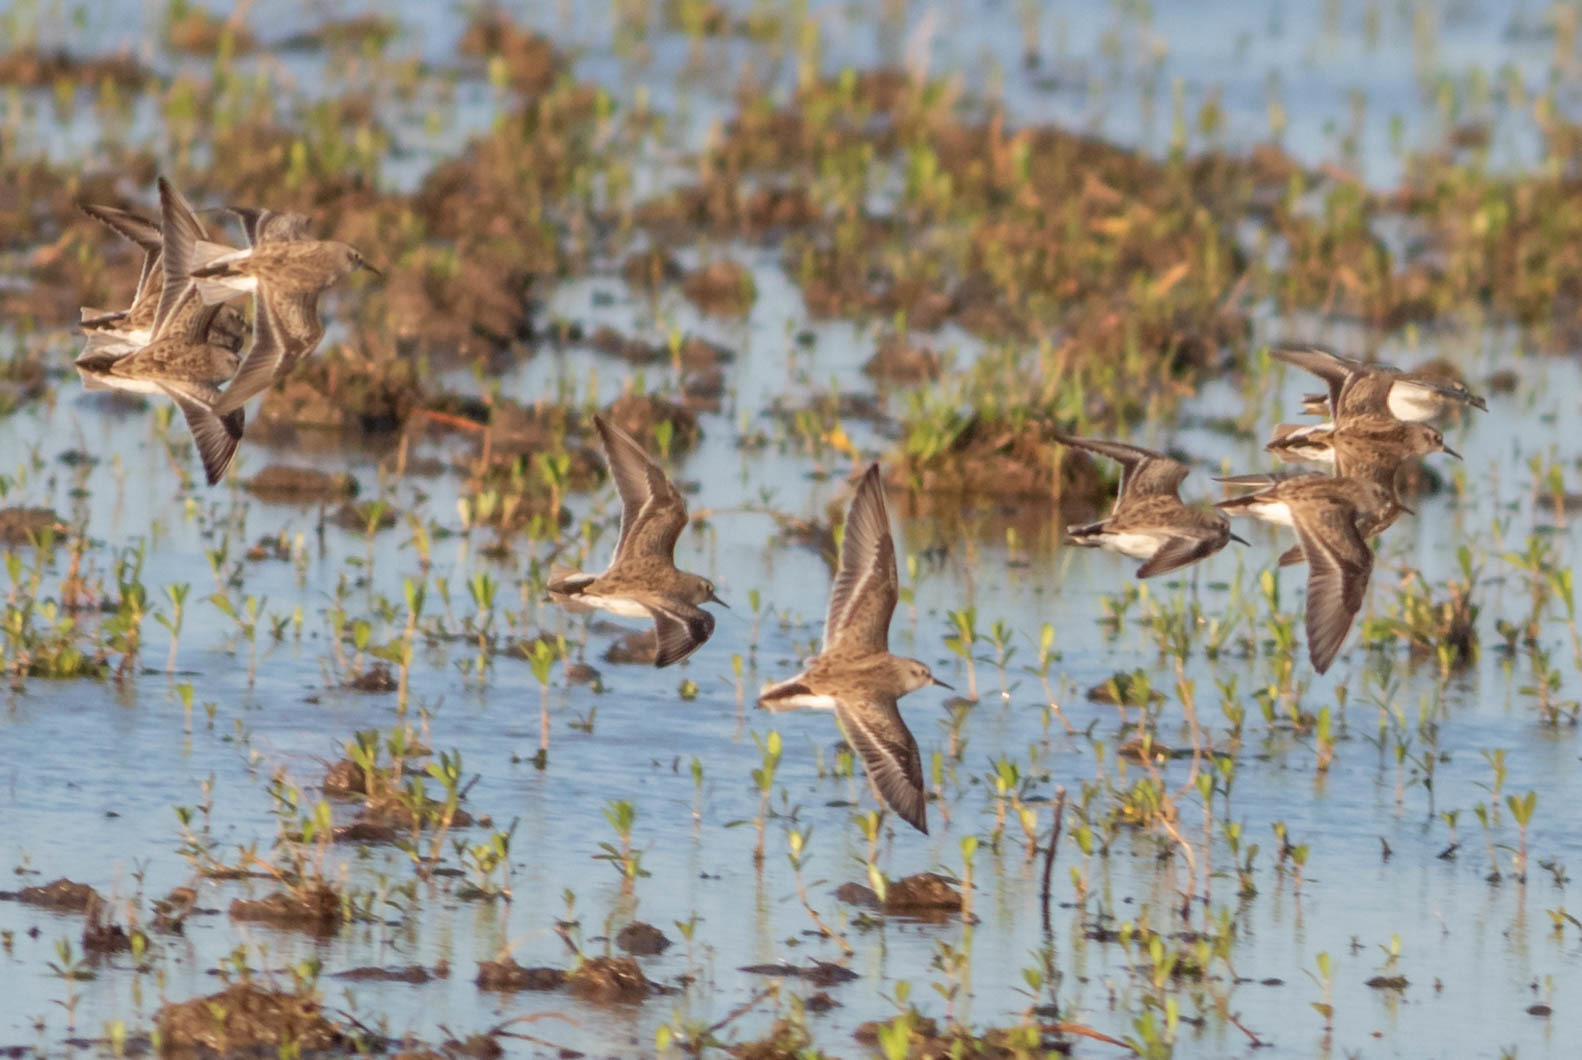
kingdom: Animalia
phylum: Chordata
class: Aves
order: Charadriiformes
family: Scolopacidae
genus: Calidris
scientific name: Calidris minutilla
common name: Least sandpiper
